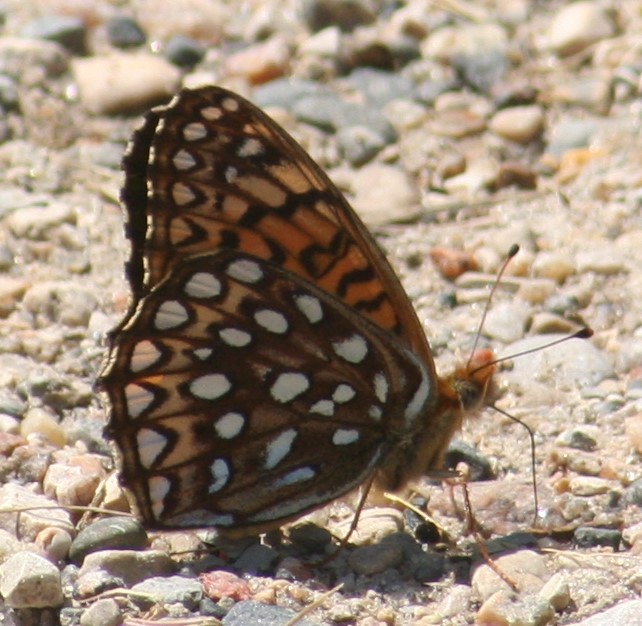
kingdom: Animalia
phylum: Arthropoda
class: Insecta
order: Lepidoptera
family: Nymphalidae
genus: Speyeria
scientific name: Speyeria atlantis
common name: Atlantis fritillary
